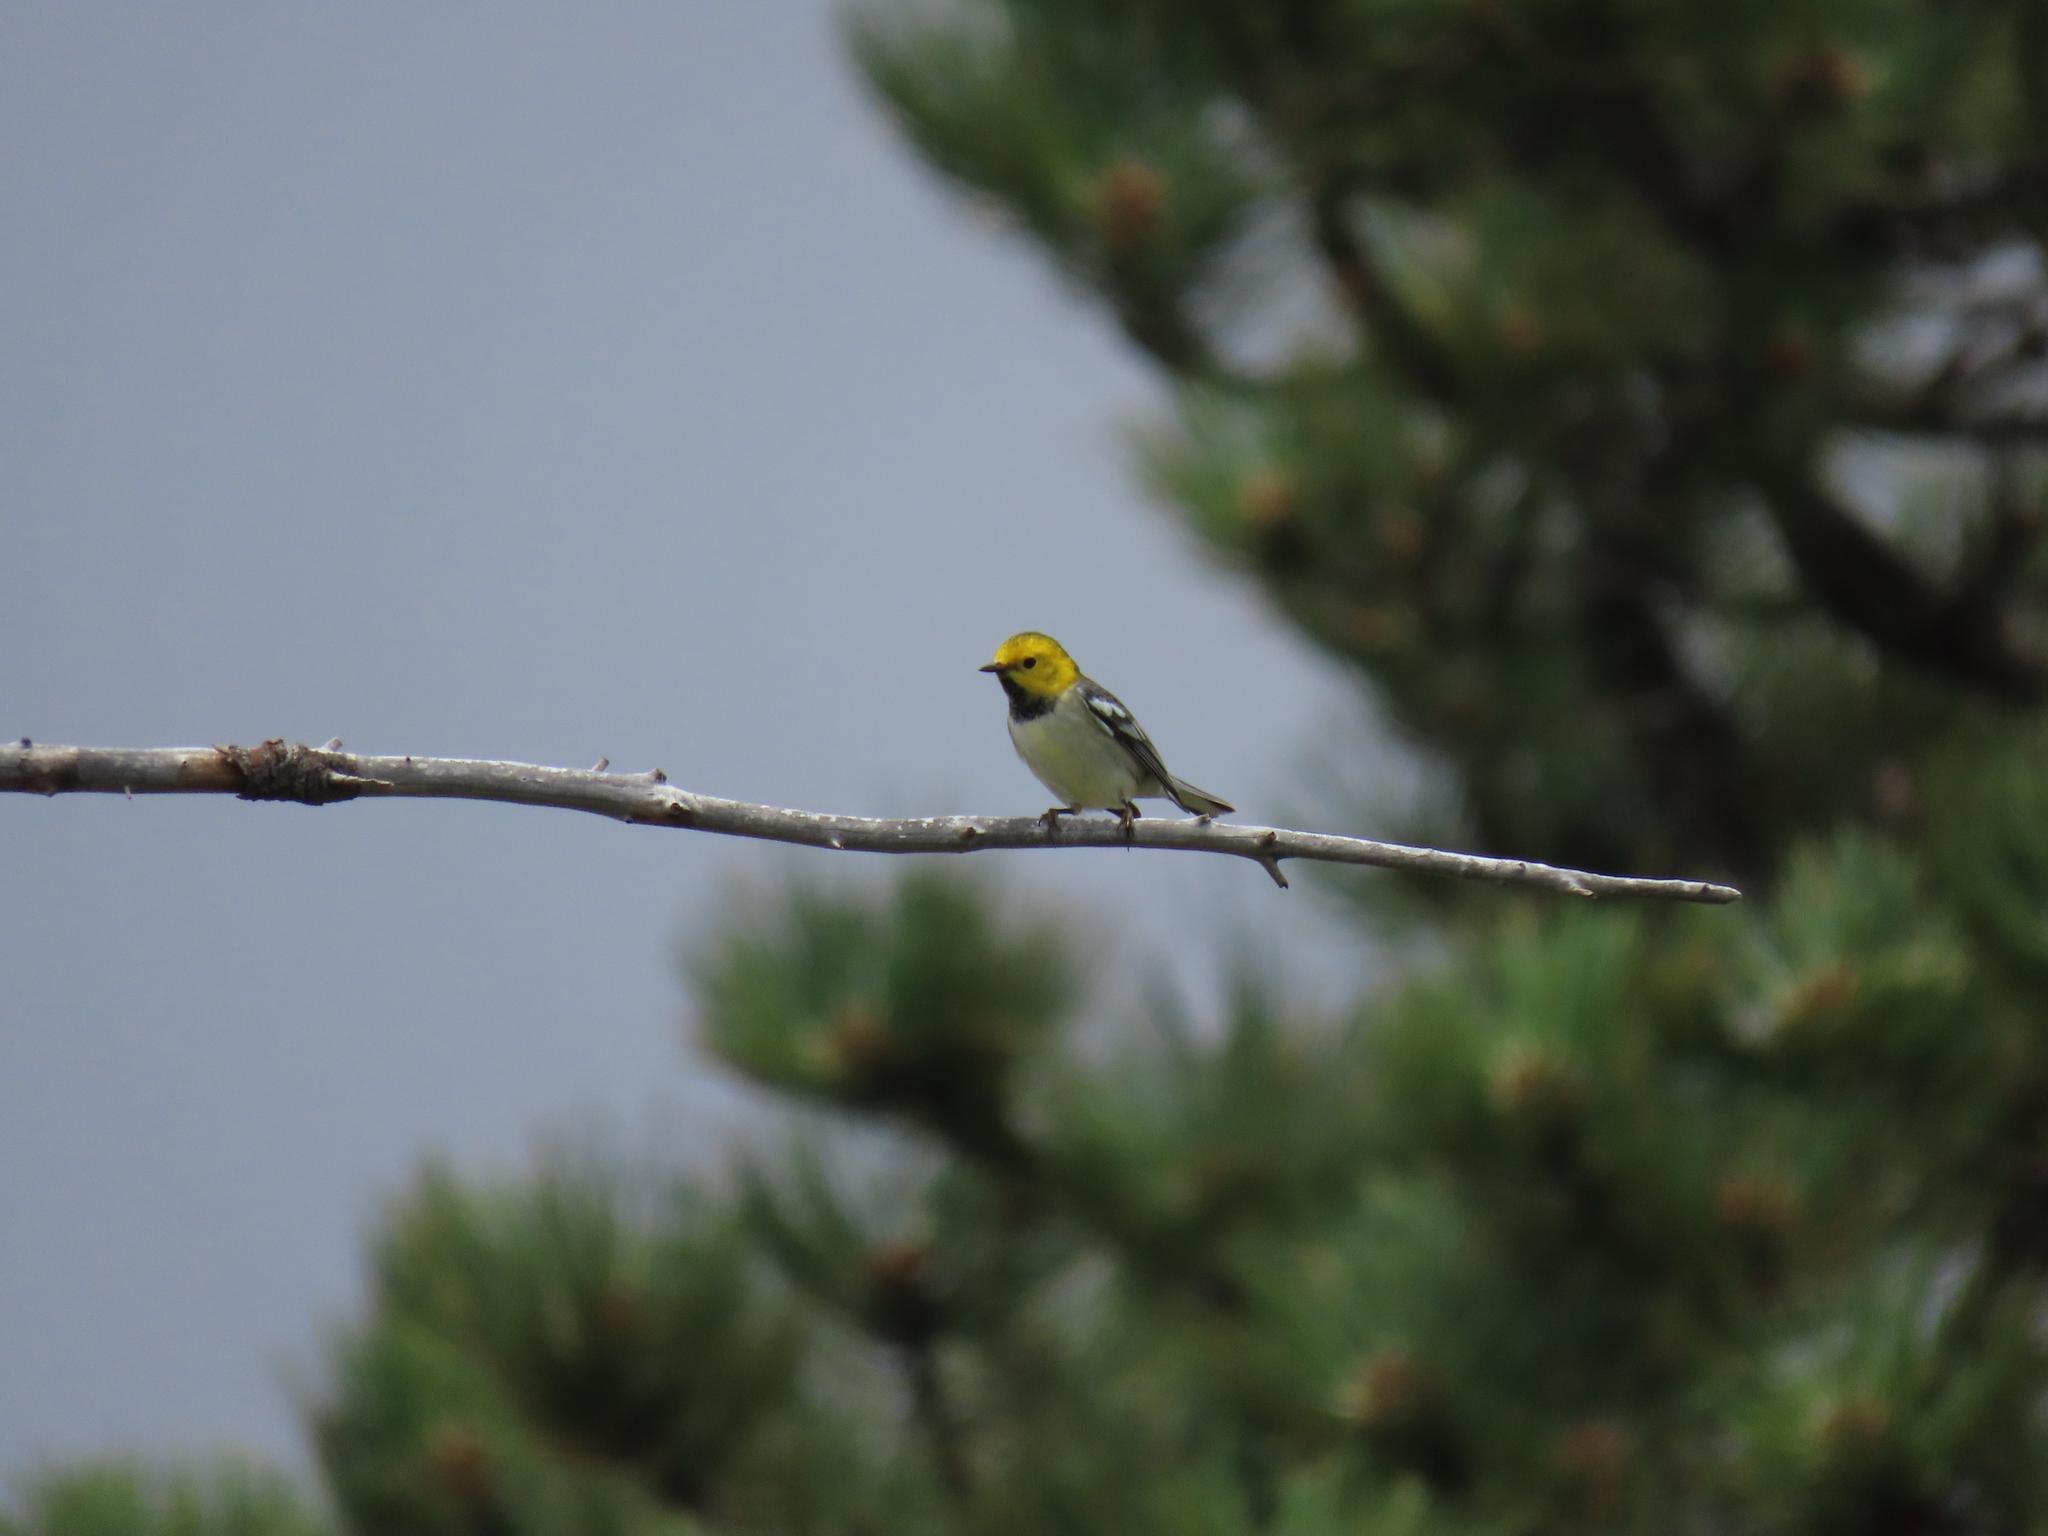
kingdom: Animalia
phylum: Chordata
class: Aves
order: Passeriformes
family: Parulidae
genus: Setophaga
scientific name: Setophaga occidentalis
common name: Hermit warbler
